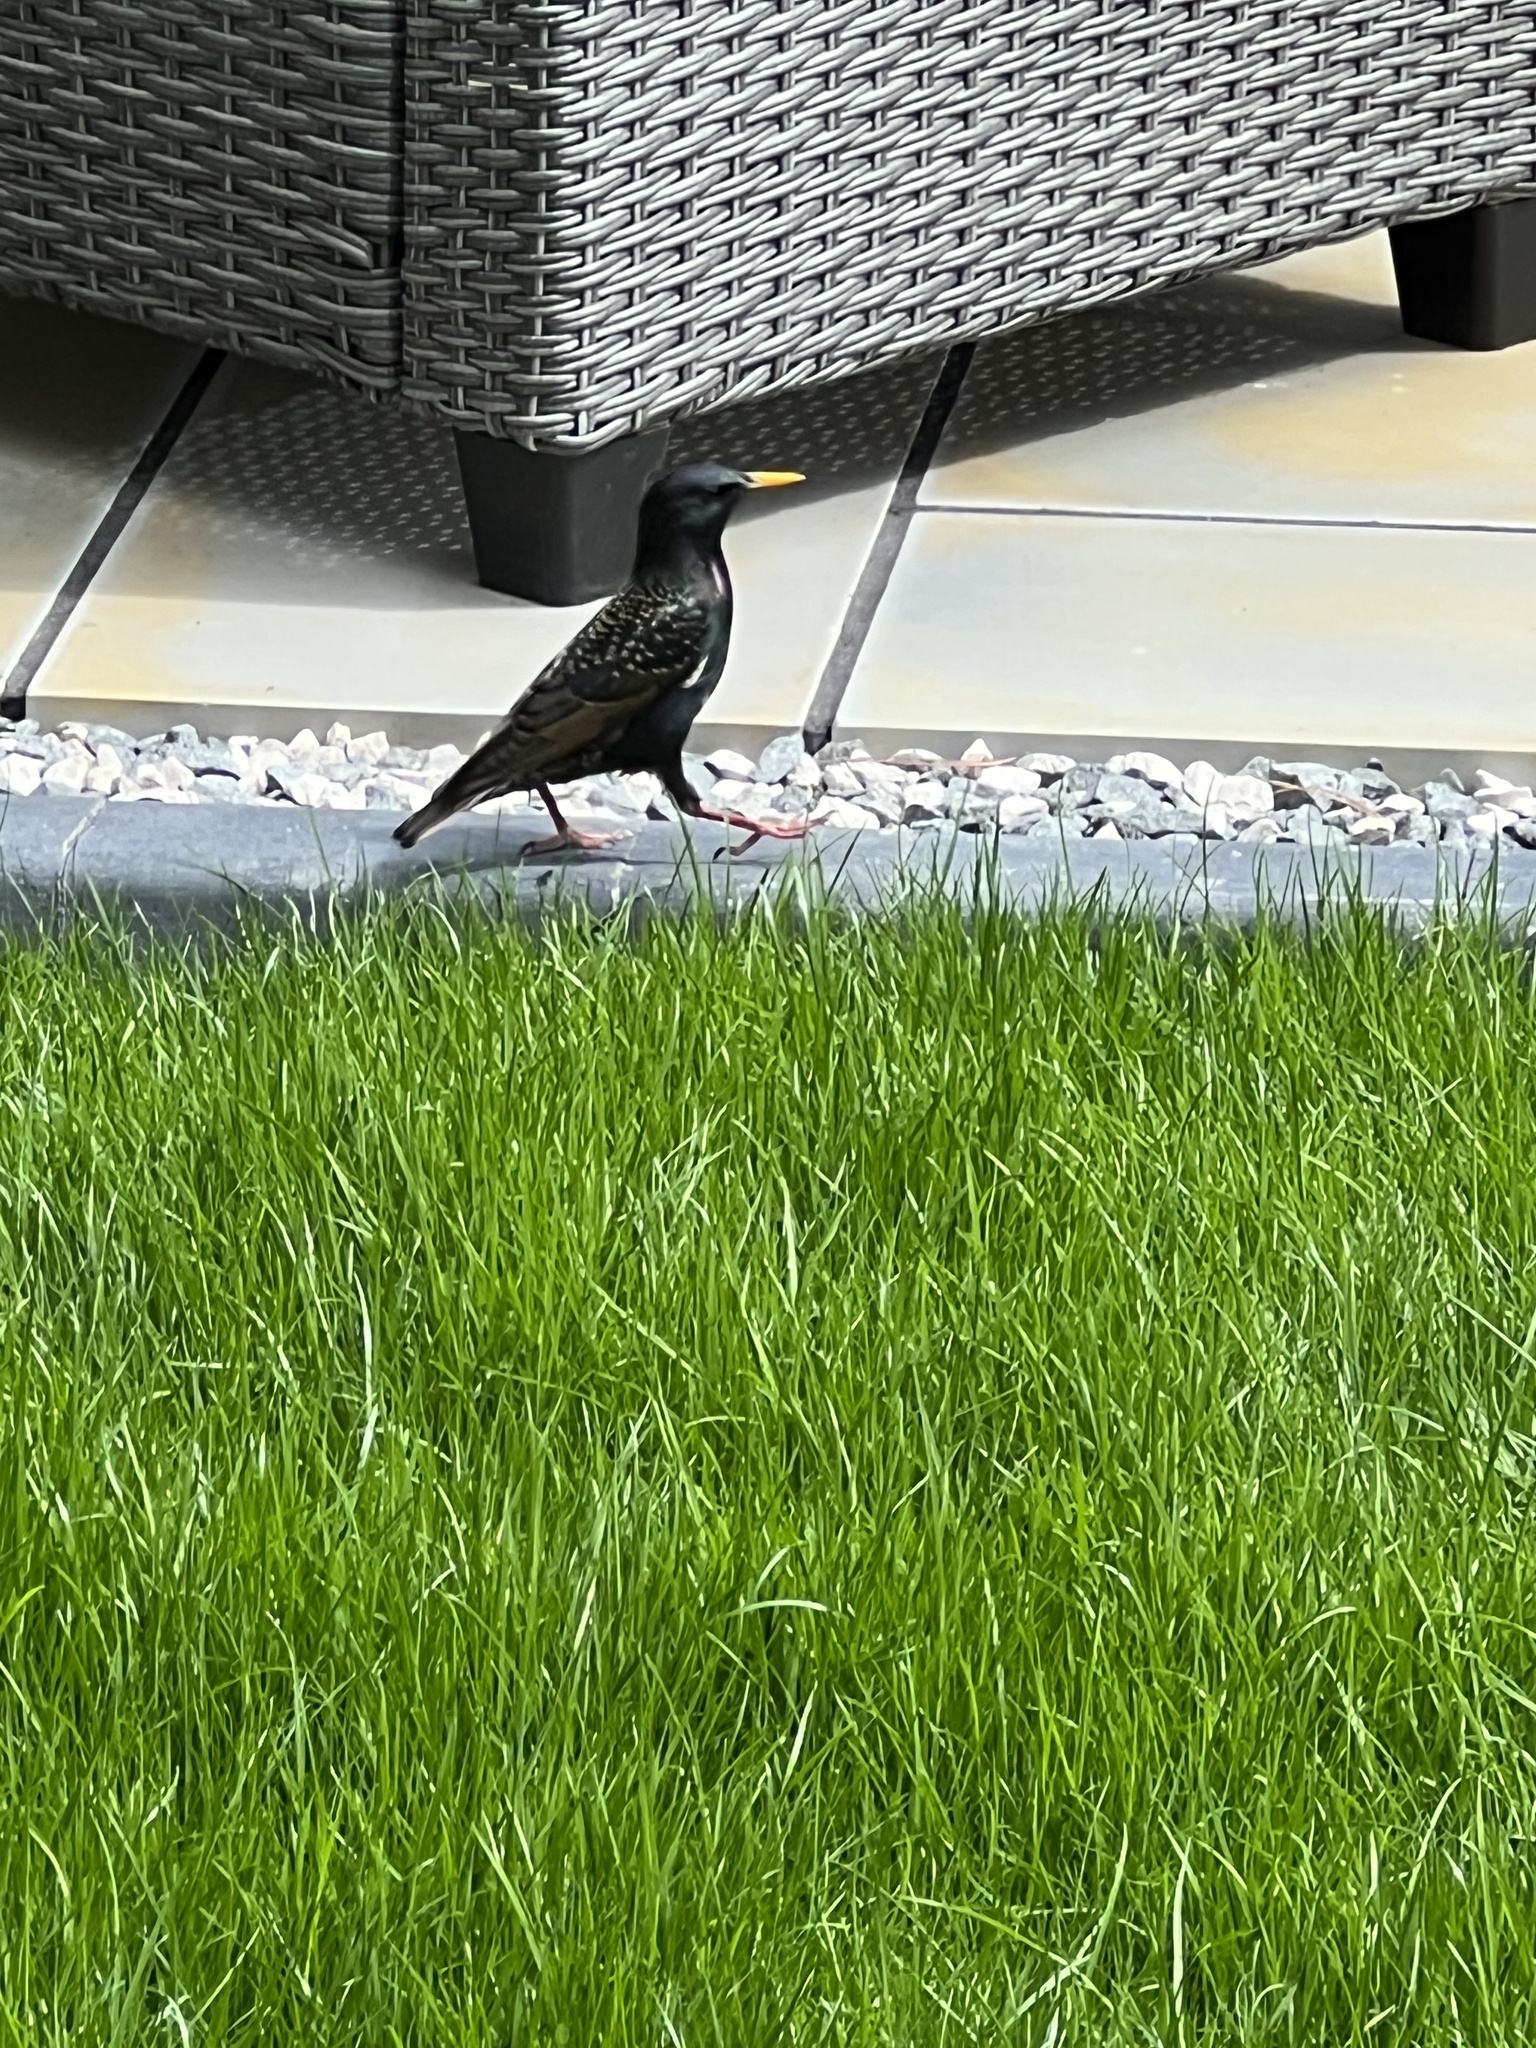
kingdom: Animalia
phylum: Chordata
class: Aves
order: Passeriformes
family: Sturnidae
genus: Sturnus
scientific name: Sturnus vulgaris
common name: Common starling
